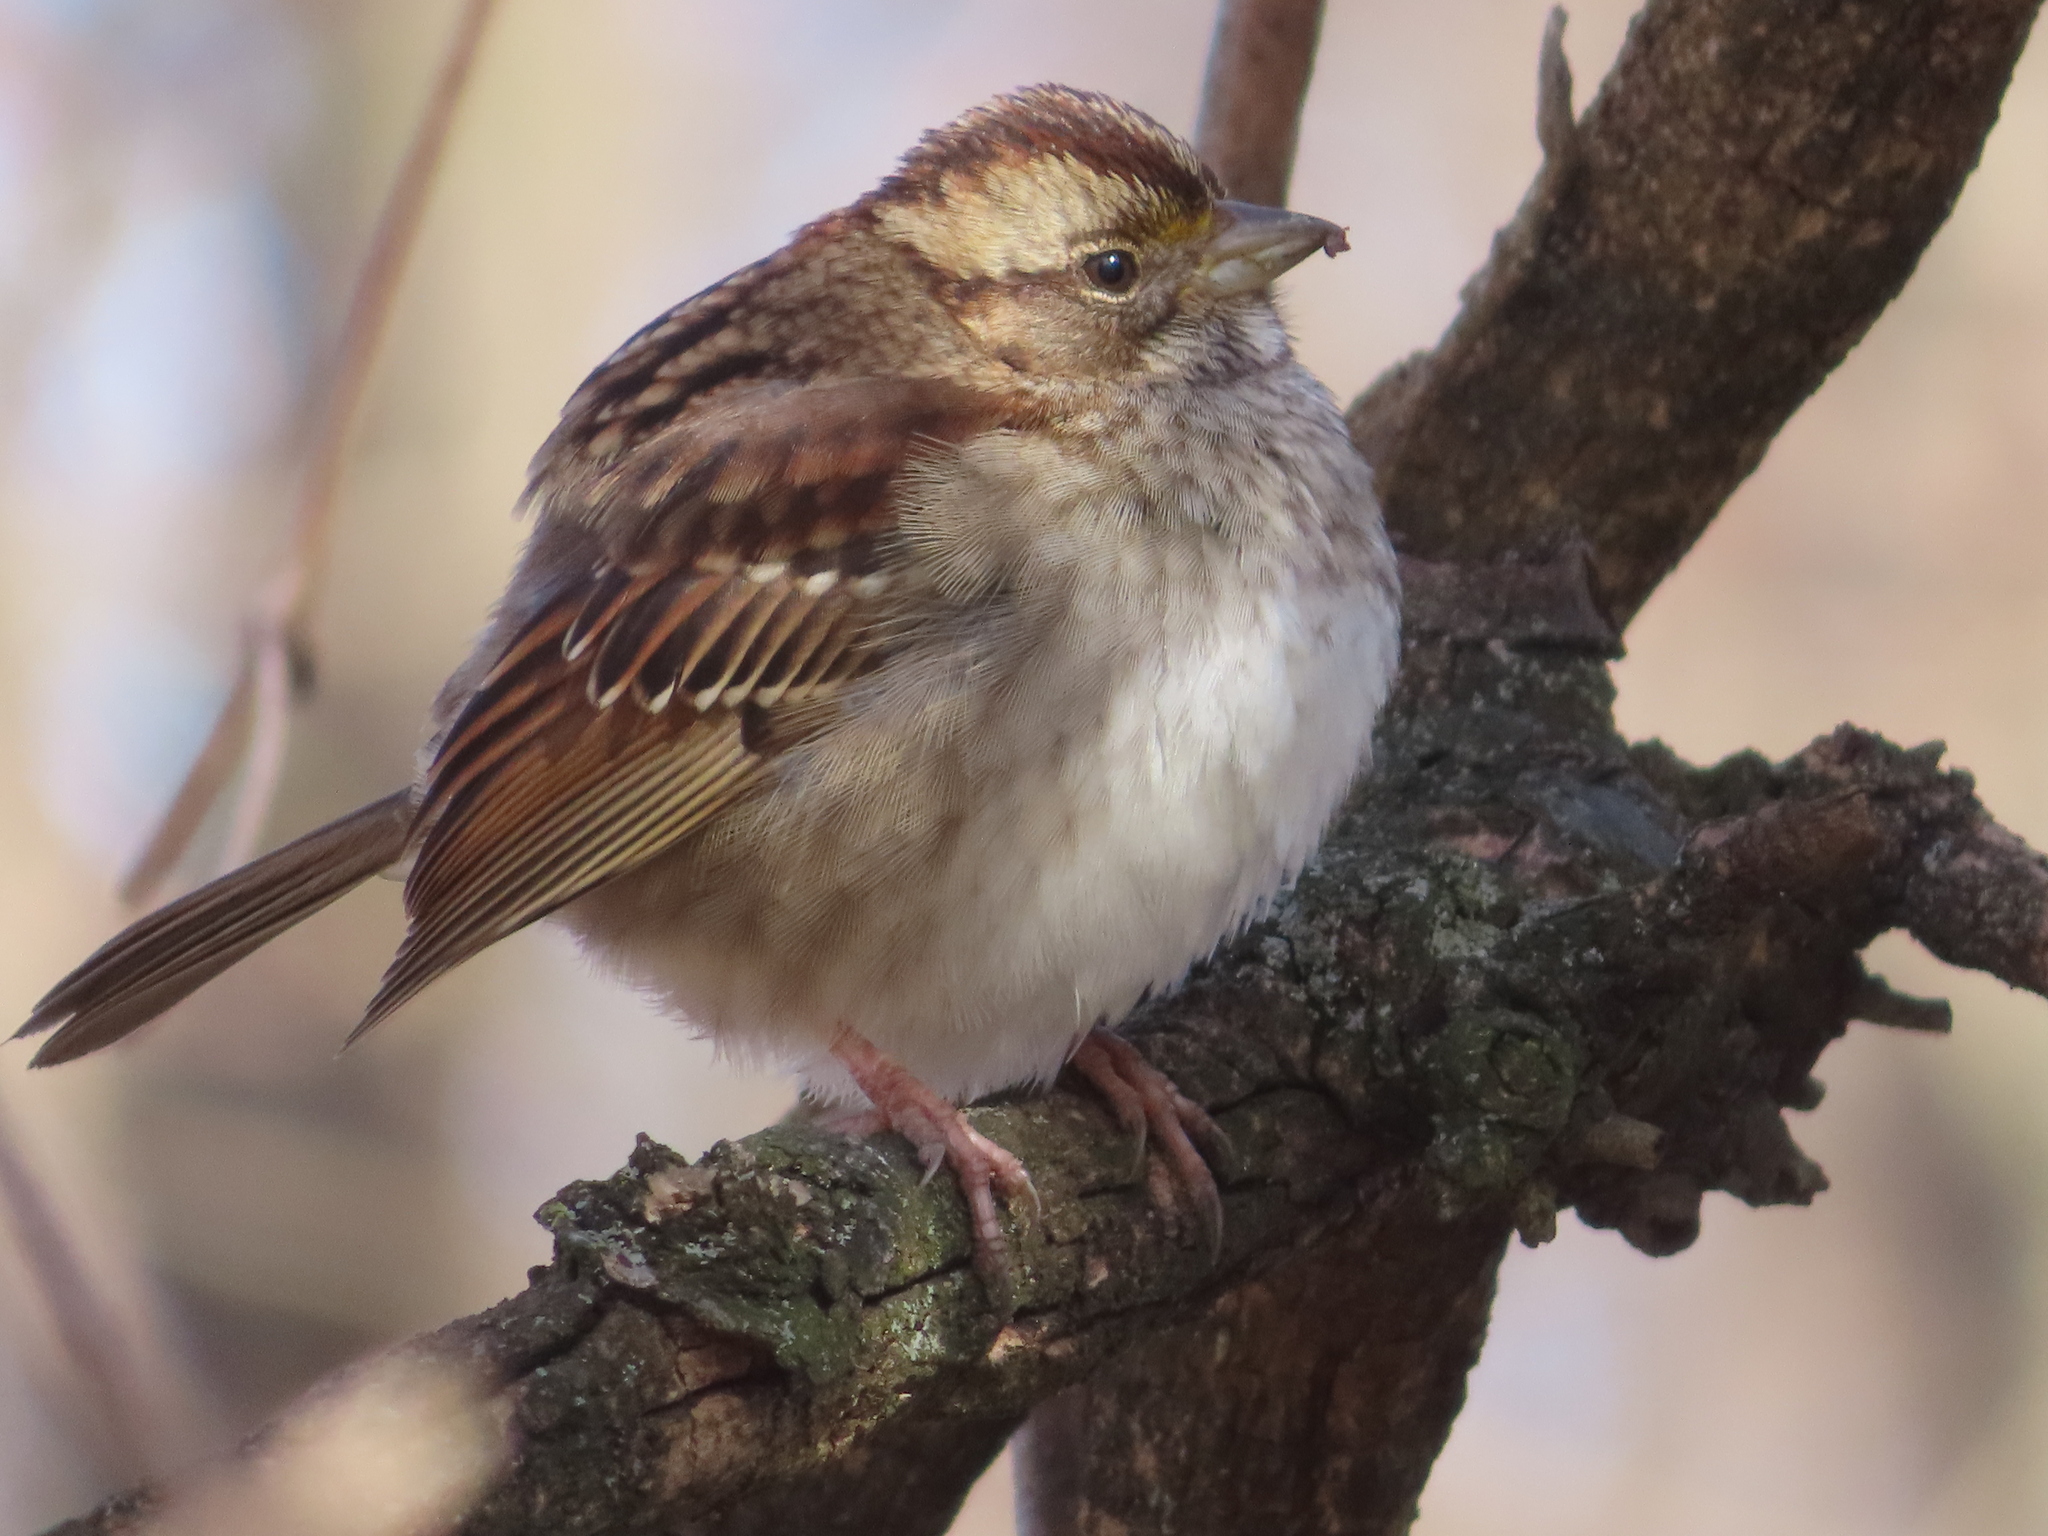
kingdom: Animalia
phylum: Chordata
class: Aves
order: Passeriformes
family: Passerellidae
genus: Zonotrichia
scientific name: Zonotrichia albicollis
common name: White-throated sparrow
